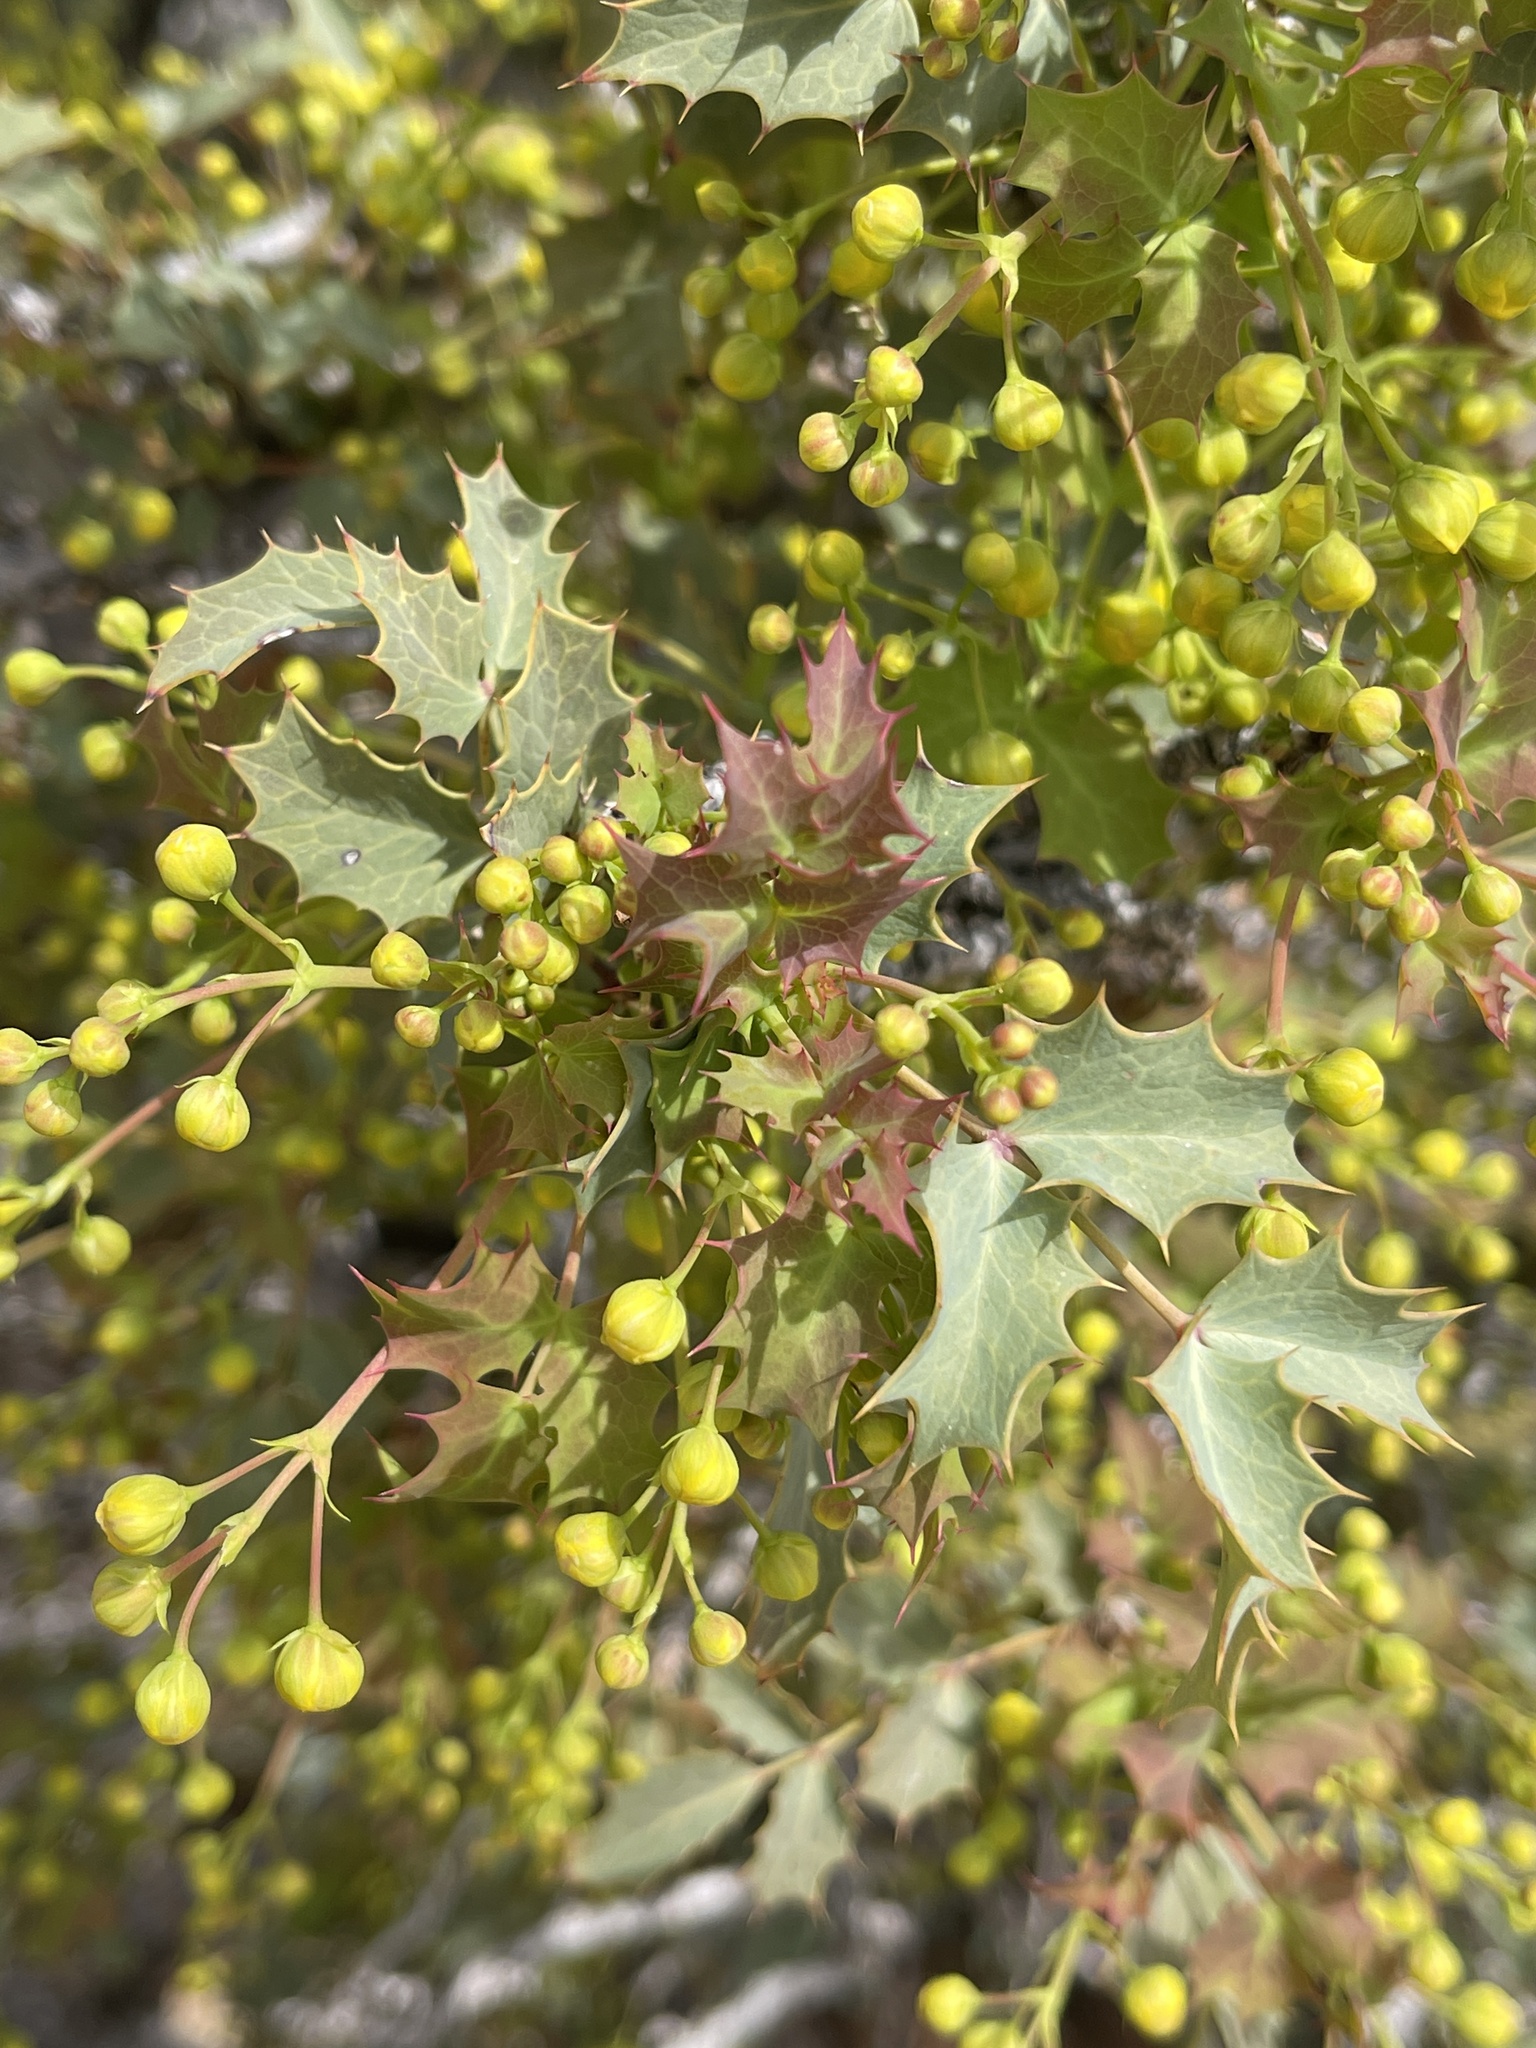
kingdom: Plantae
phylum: Tracheophyta
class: Magnoliopsida
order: Ranunculales
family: Berberidaceae
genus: Alloberberis
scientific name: Alloberberis fremontii
